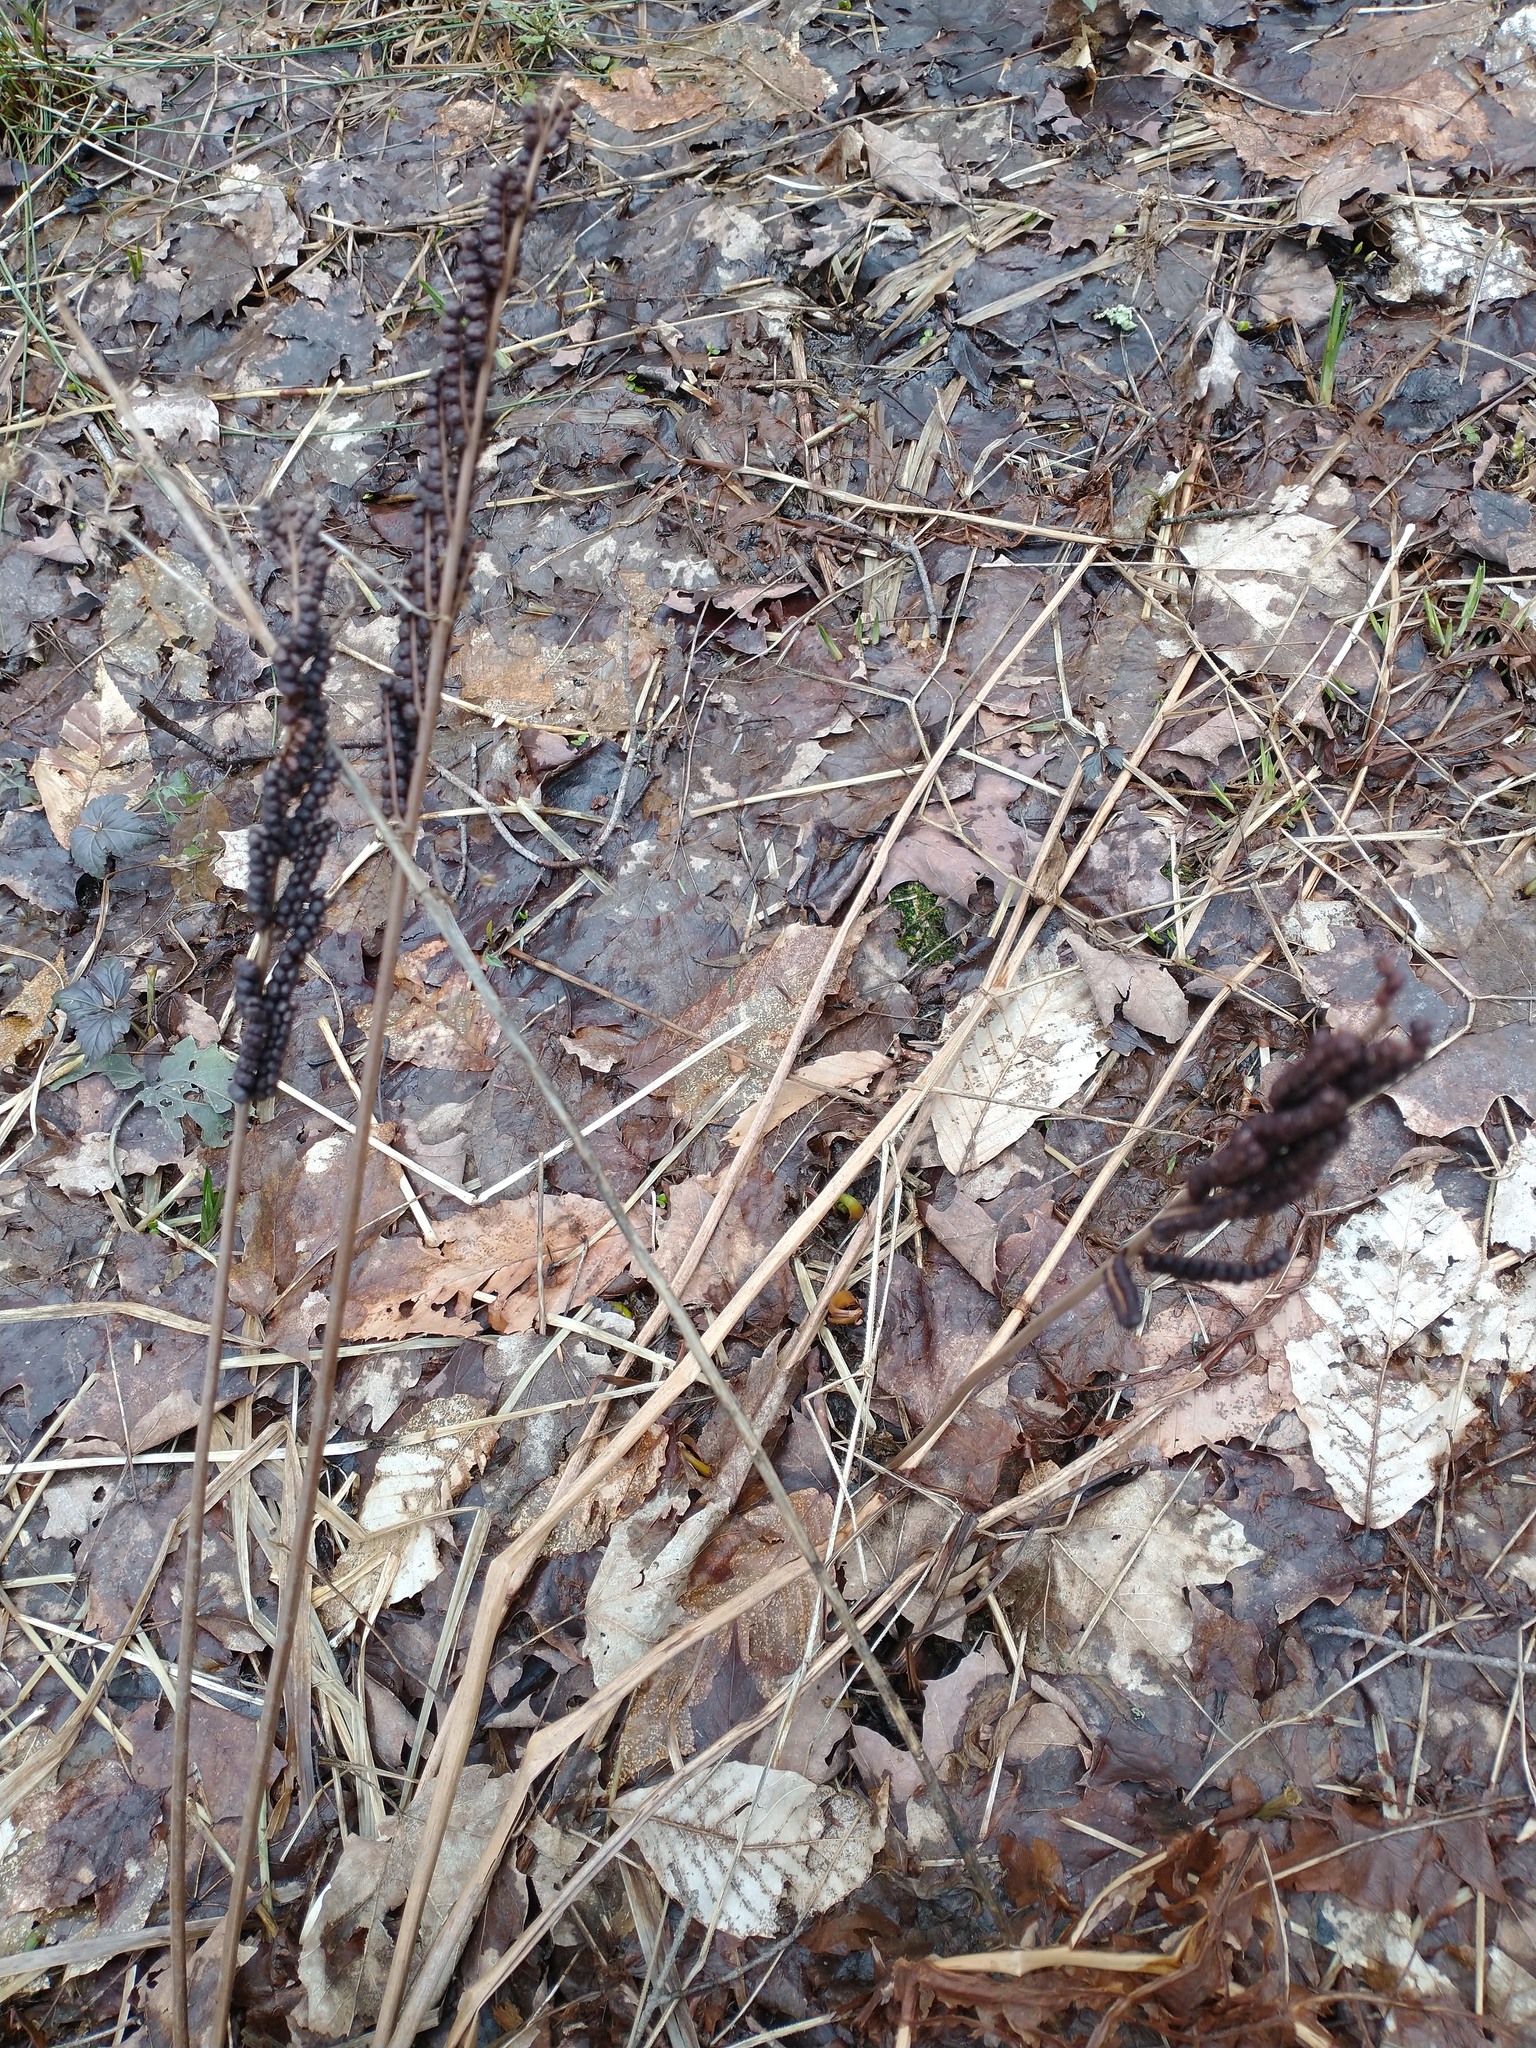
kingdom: Plantae
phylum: Tracheophyta
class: Polypodiopsida
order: Polypodiales
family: Onocleaceae
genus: Onoclea
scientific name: Onoclea sensibilis
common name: Sensitive fern
